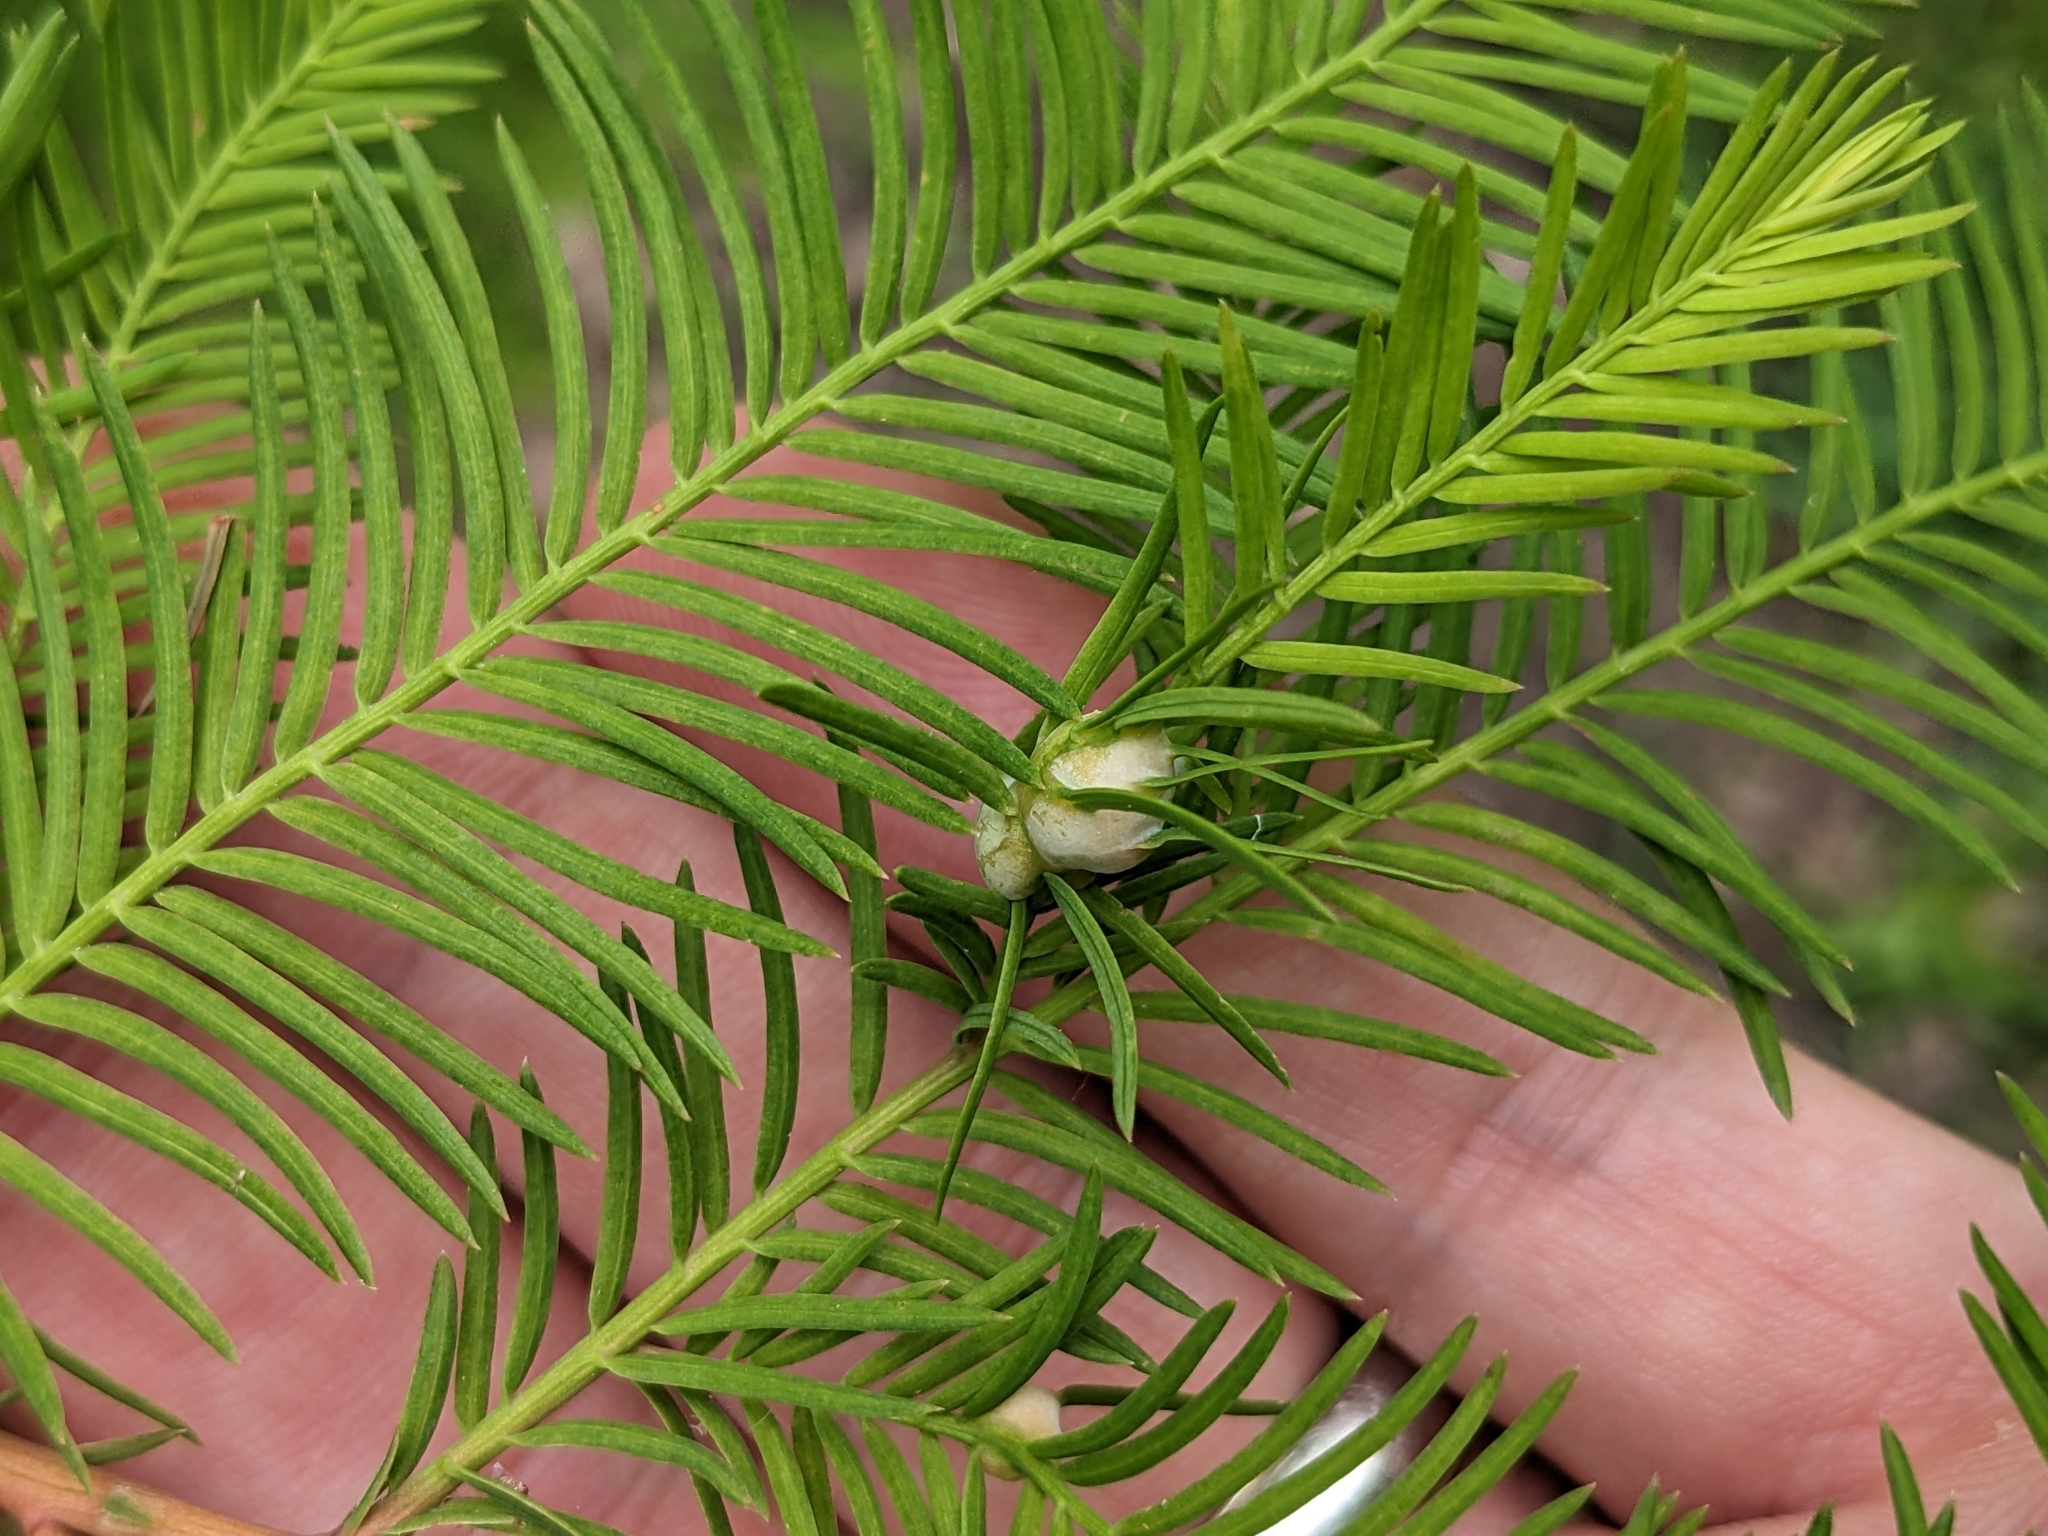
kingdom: Animalia
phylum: Arthropoda
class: Insecta
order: Diptera
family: Cecidomyiidae
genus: Taxodiomyia
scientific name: Taxodiomyia cupressiananassa
